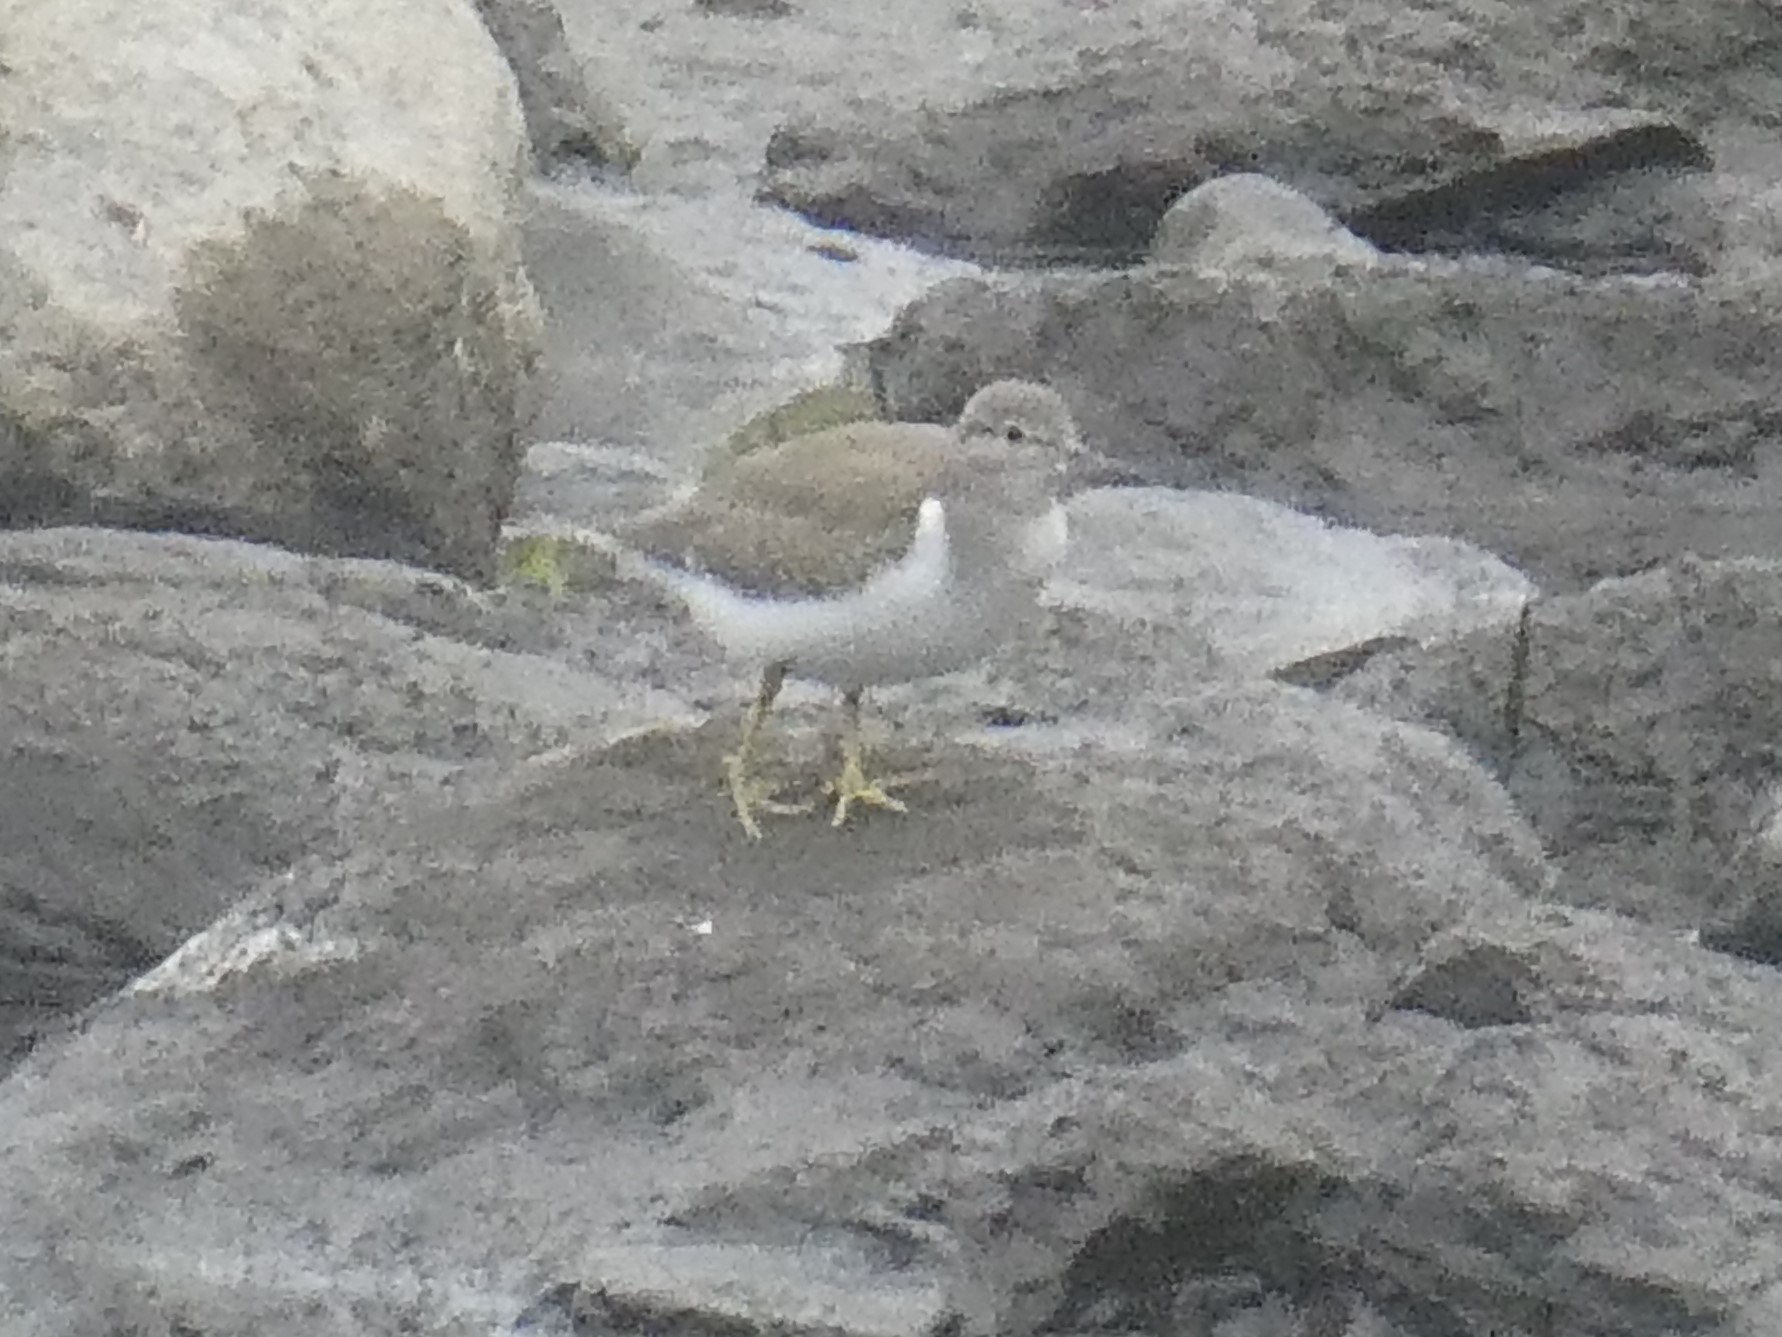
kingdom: Animalia
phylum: Chordata
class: Aves
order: Charadriiformes
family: Scolopacidae
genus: Actitis
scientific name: Actitis macularius
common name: Spotted sandpiper
